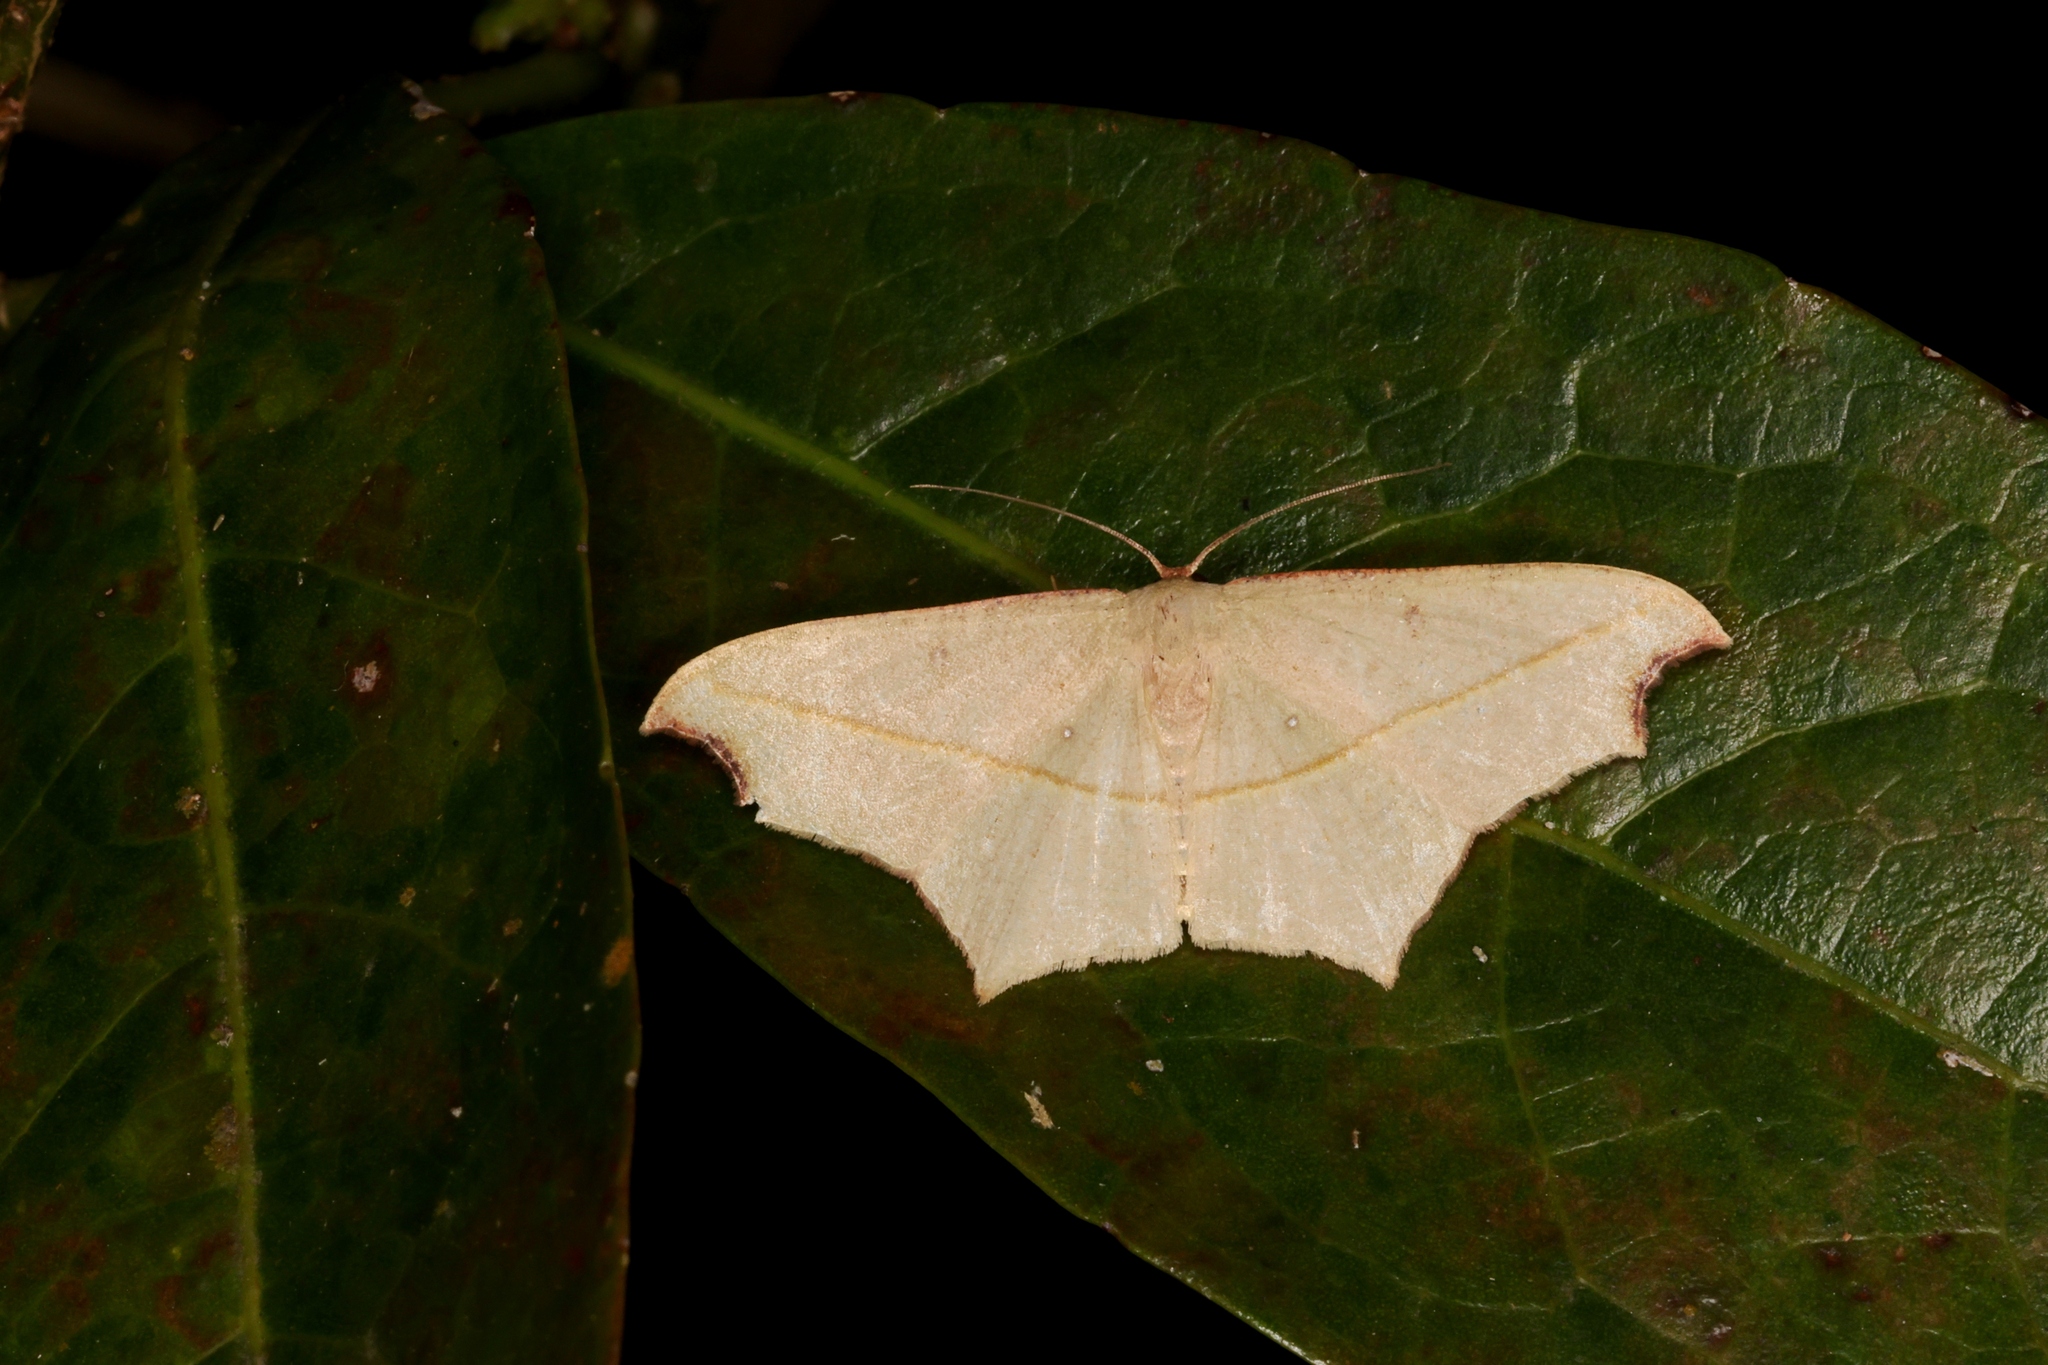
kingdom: Animalia
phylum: Arthropoda
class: Insecta
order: Lepidoptera
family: Geometridae
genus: Traminda
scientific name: Traminda aventiaria
